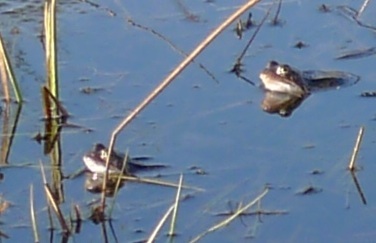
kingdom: Animalia
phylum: Chordata
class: Amphibia
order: Anura
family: Ranidae
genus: Rana
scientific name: Rana temporaria
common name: Common frog
